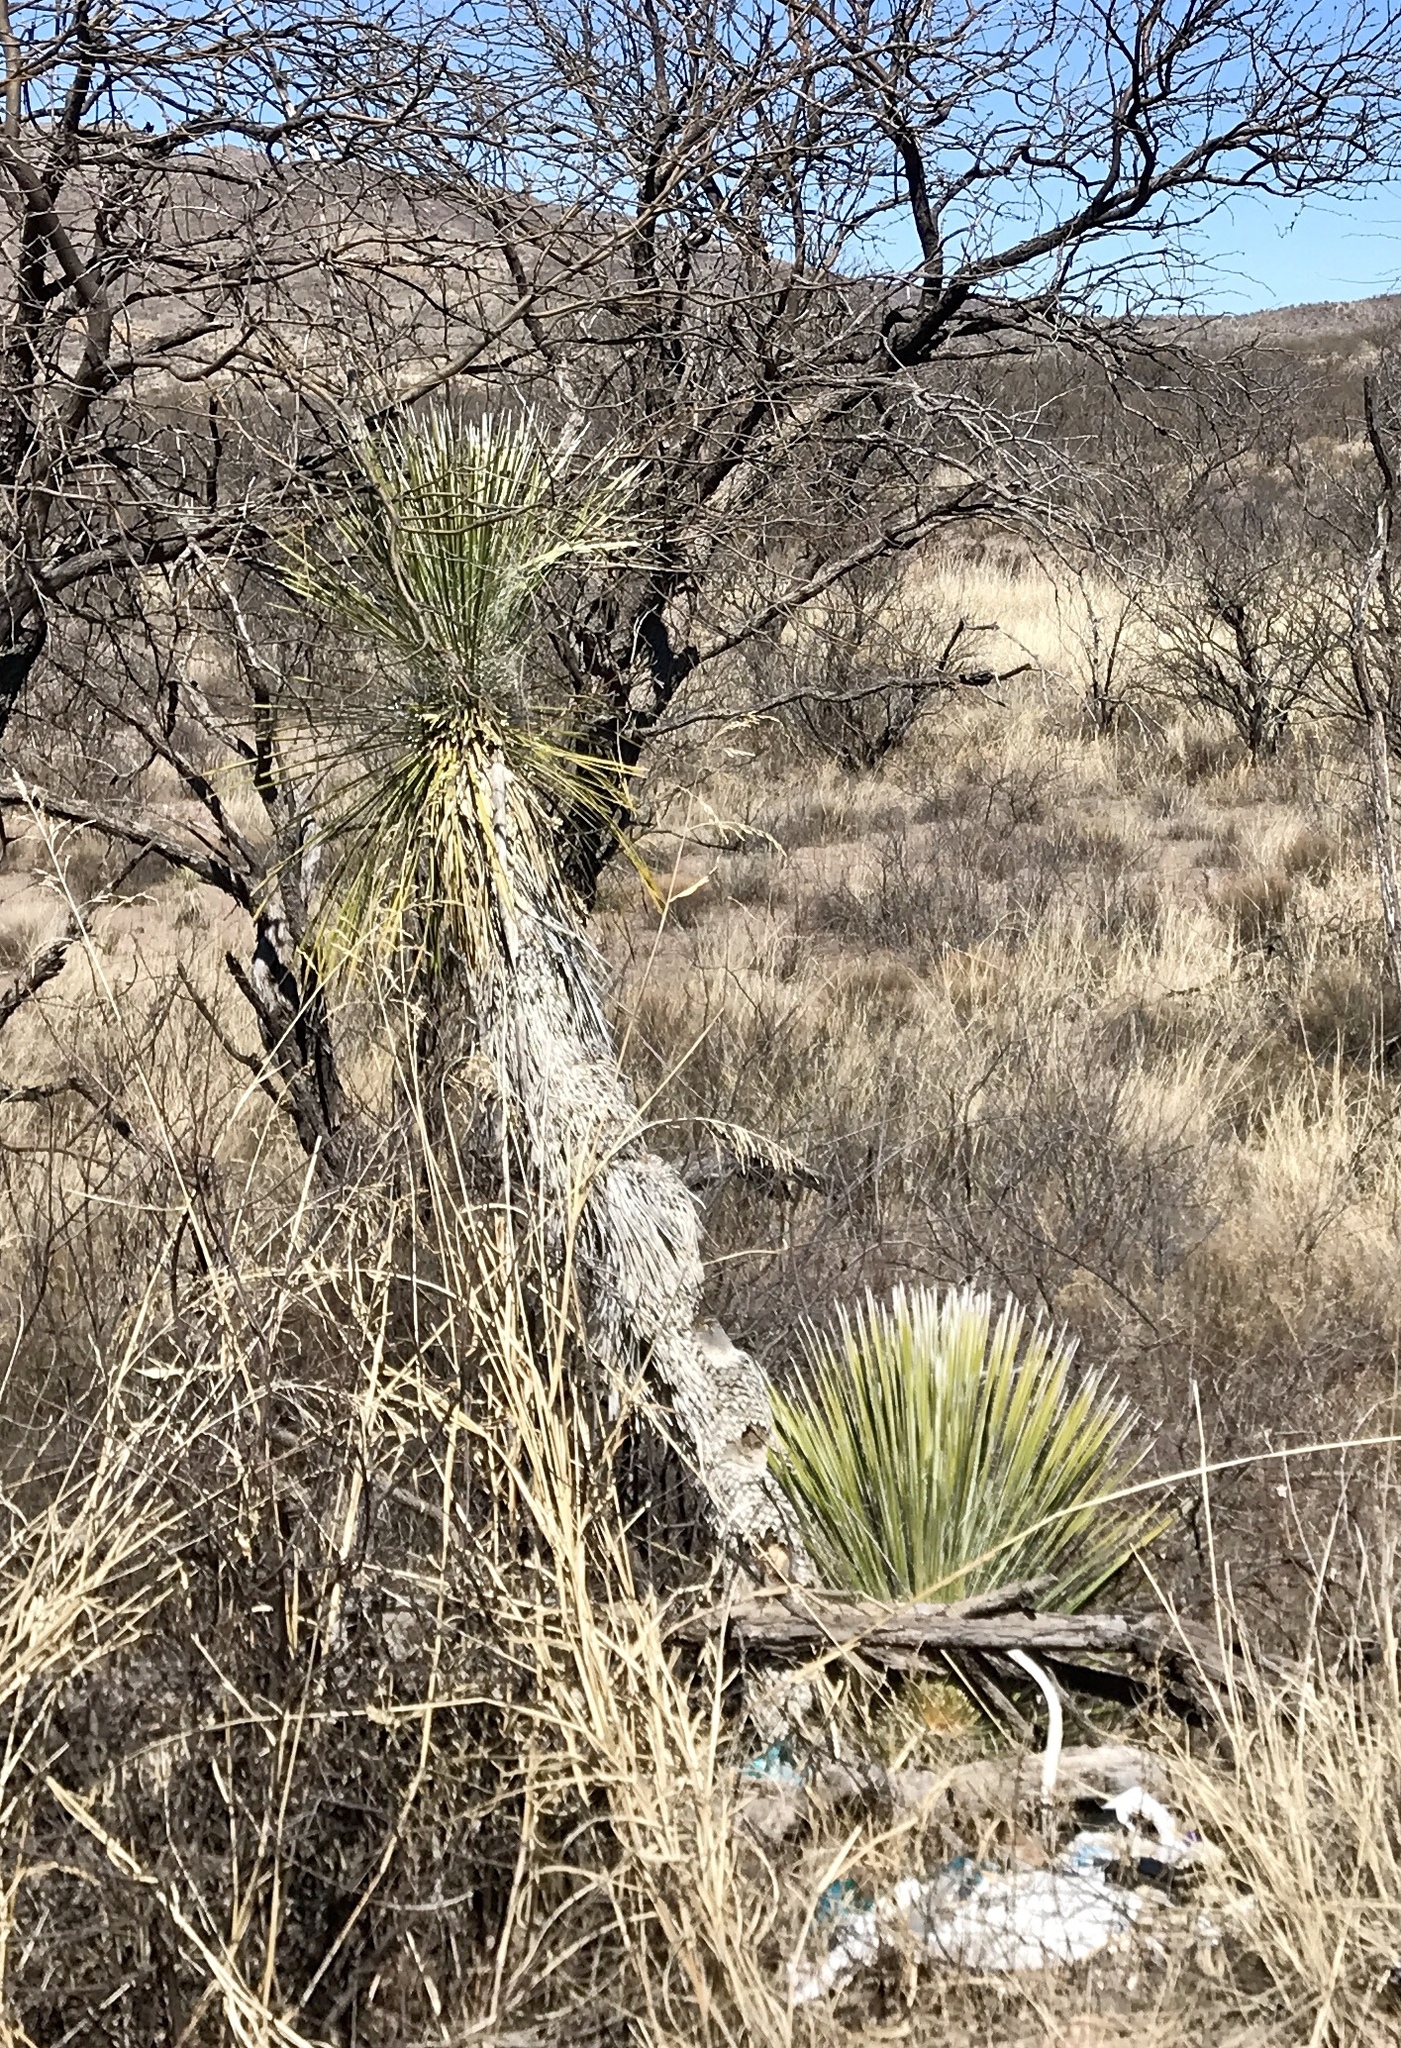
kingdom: Plantae
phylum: Tracheophyta
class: Liliopsida
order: Asparagales
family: Asparagaceae
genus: Yucca
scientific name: Yucca elata
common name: Palmella
